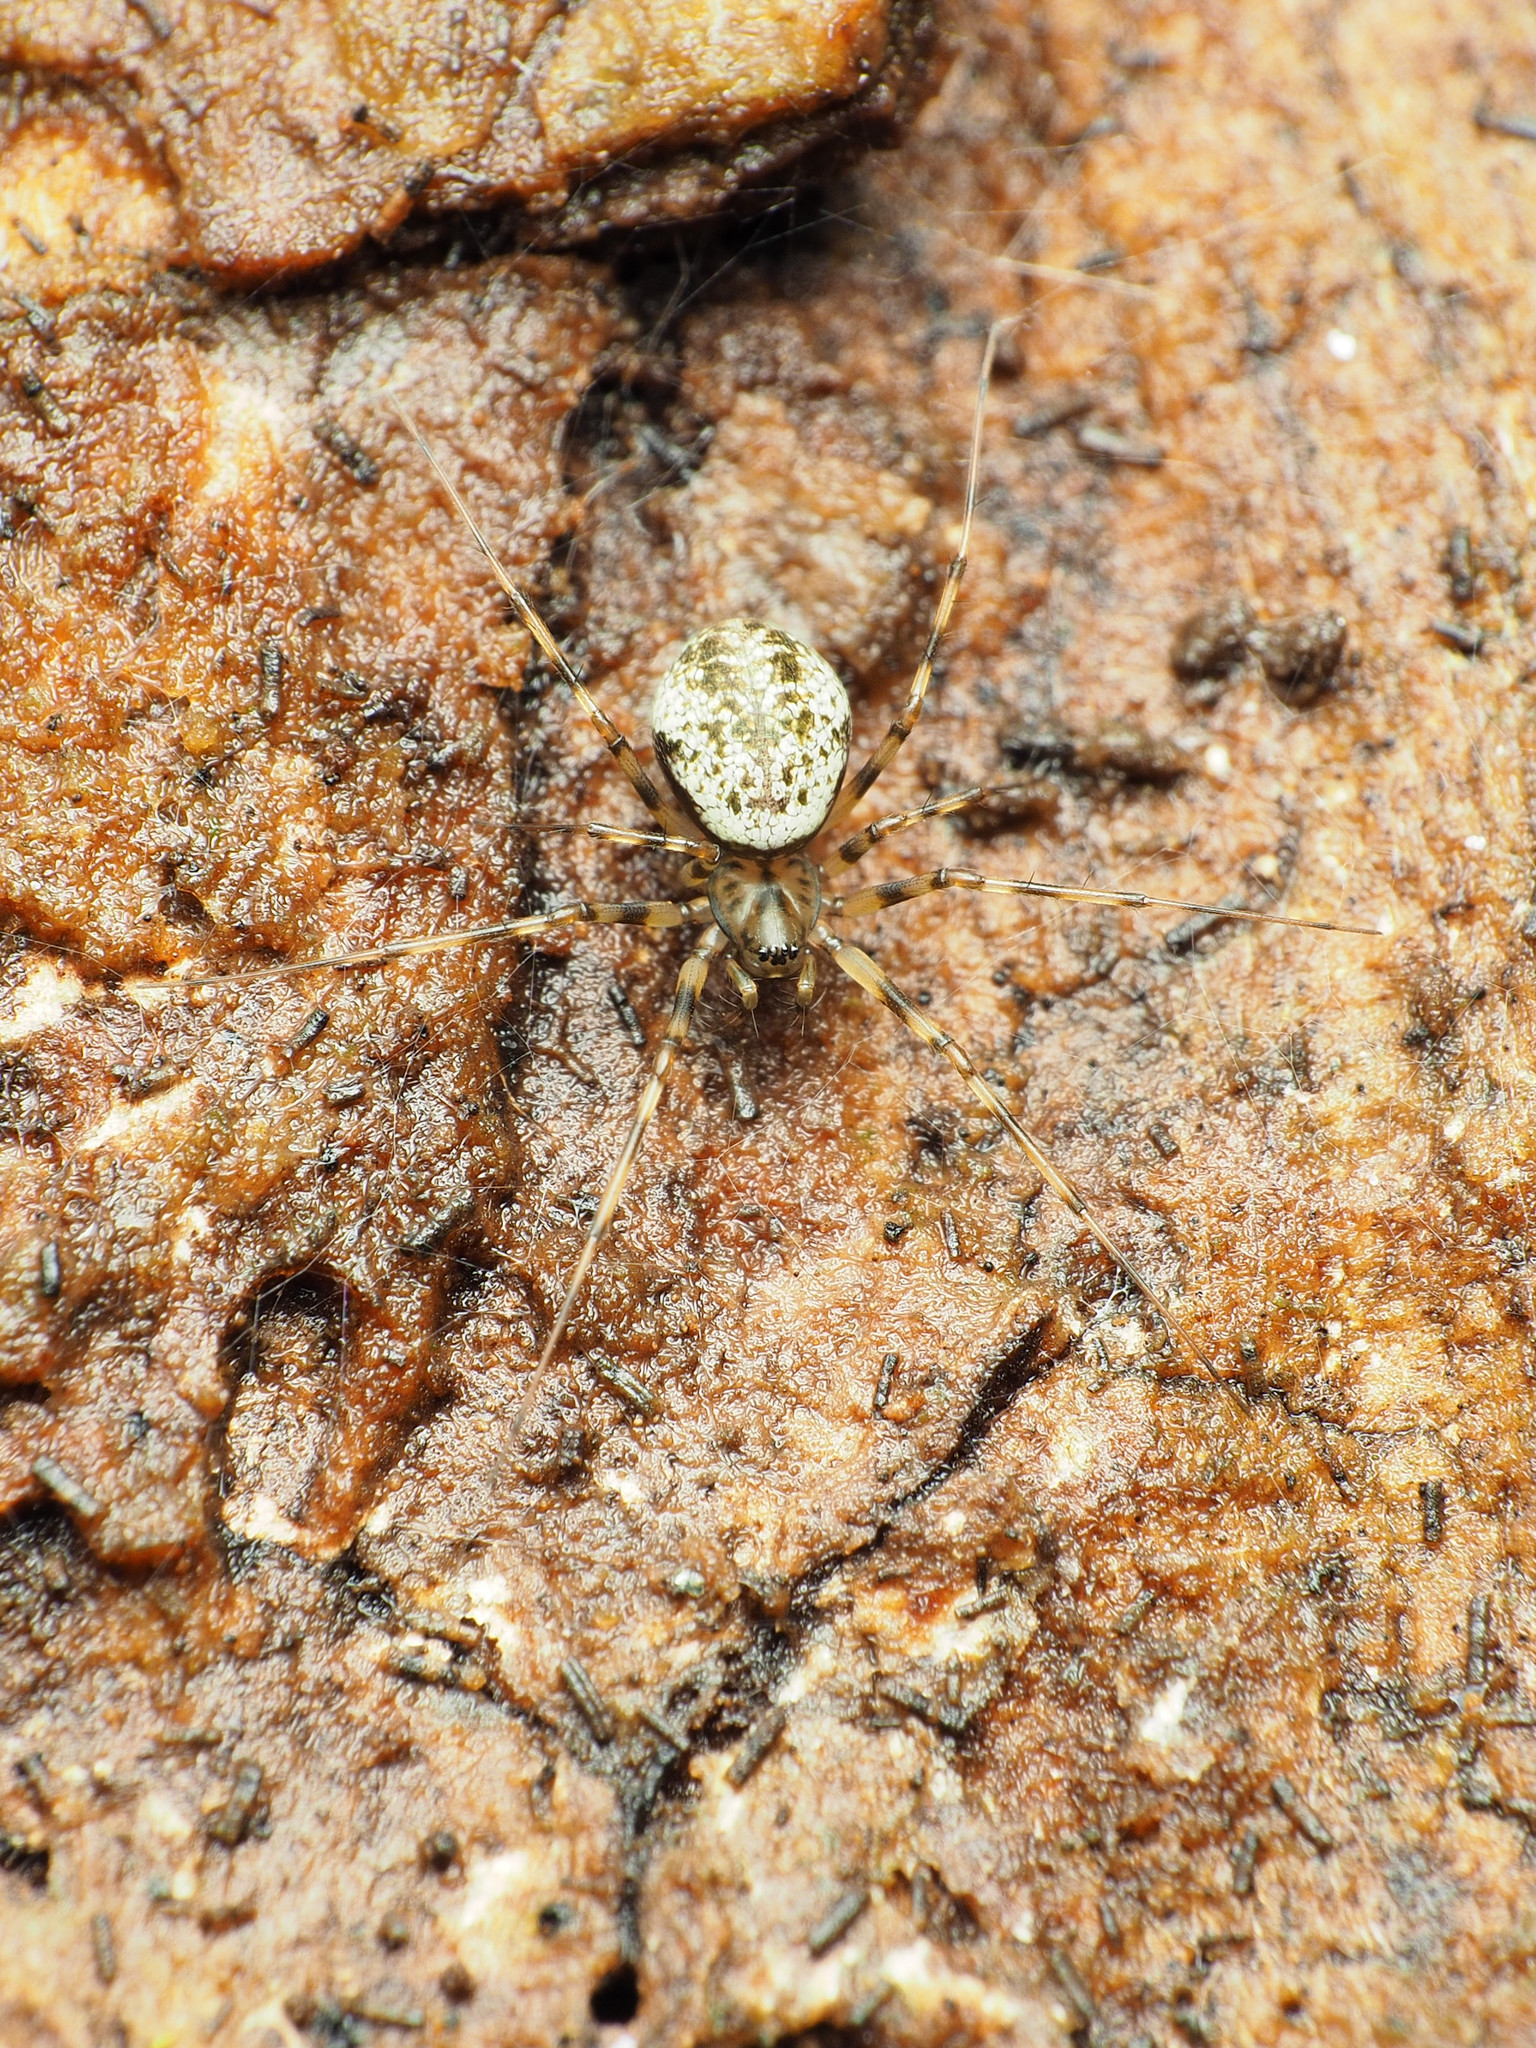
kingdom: Animalia
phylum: Arthropoda
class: Arachnida
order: Araneae
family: Linyphiidae
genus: Drapetisca
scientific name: Drapetisca alteranda
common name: Northern long-toothed sheetweaver
